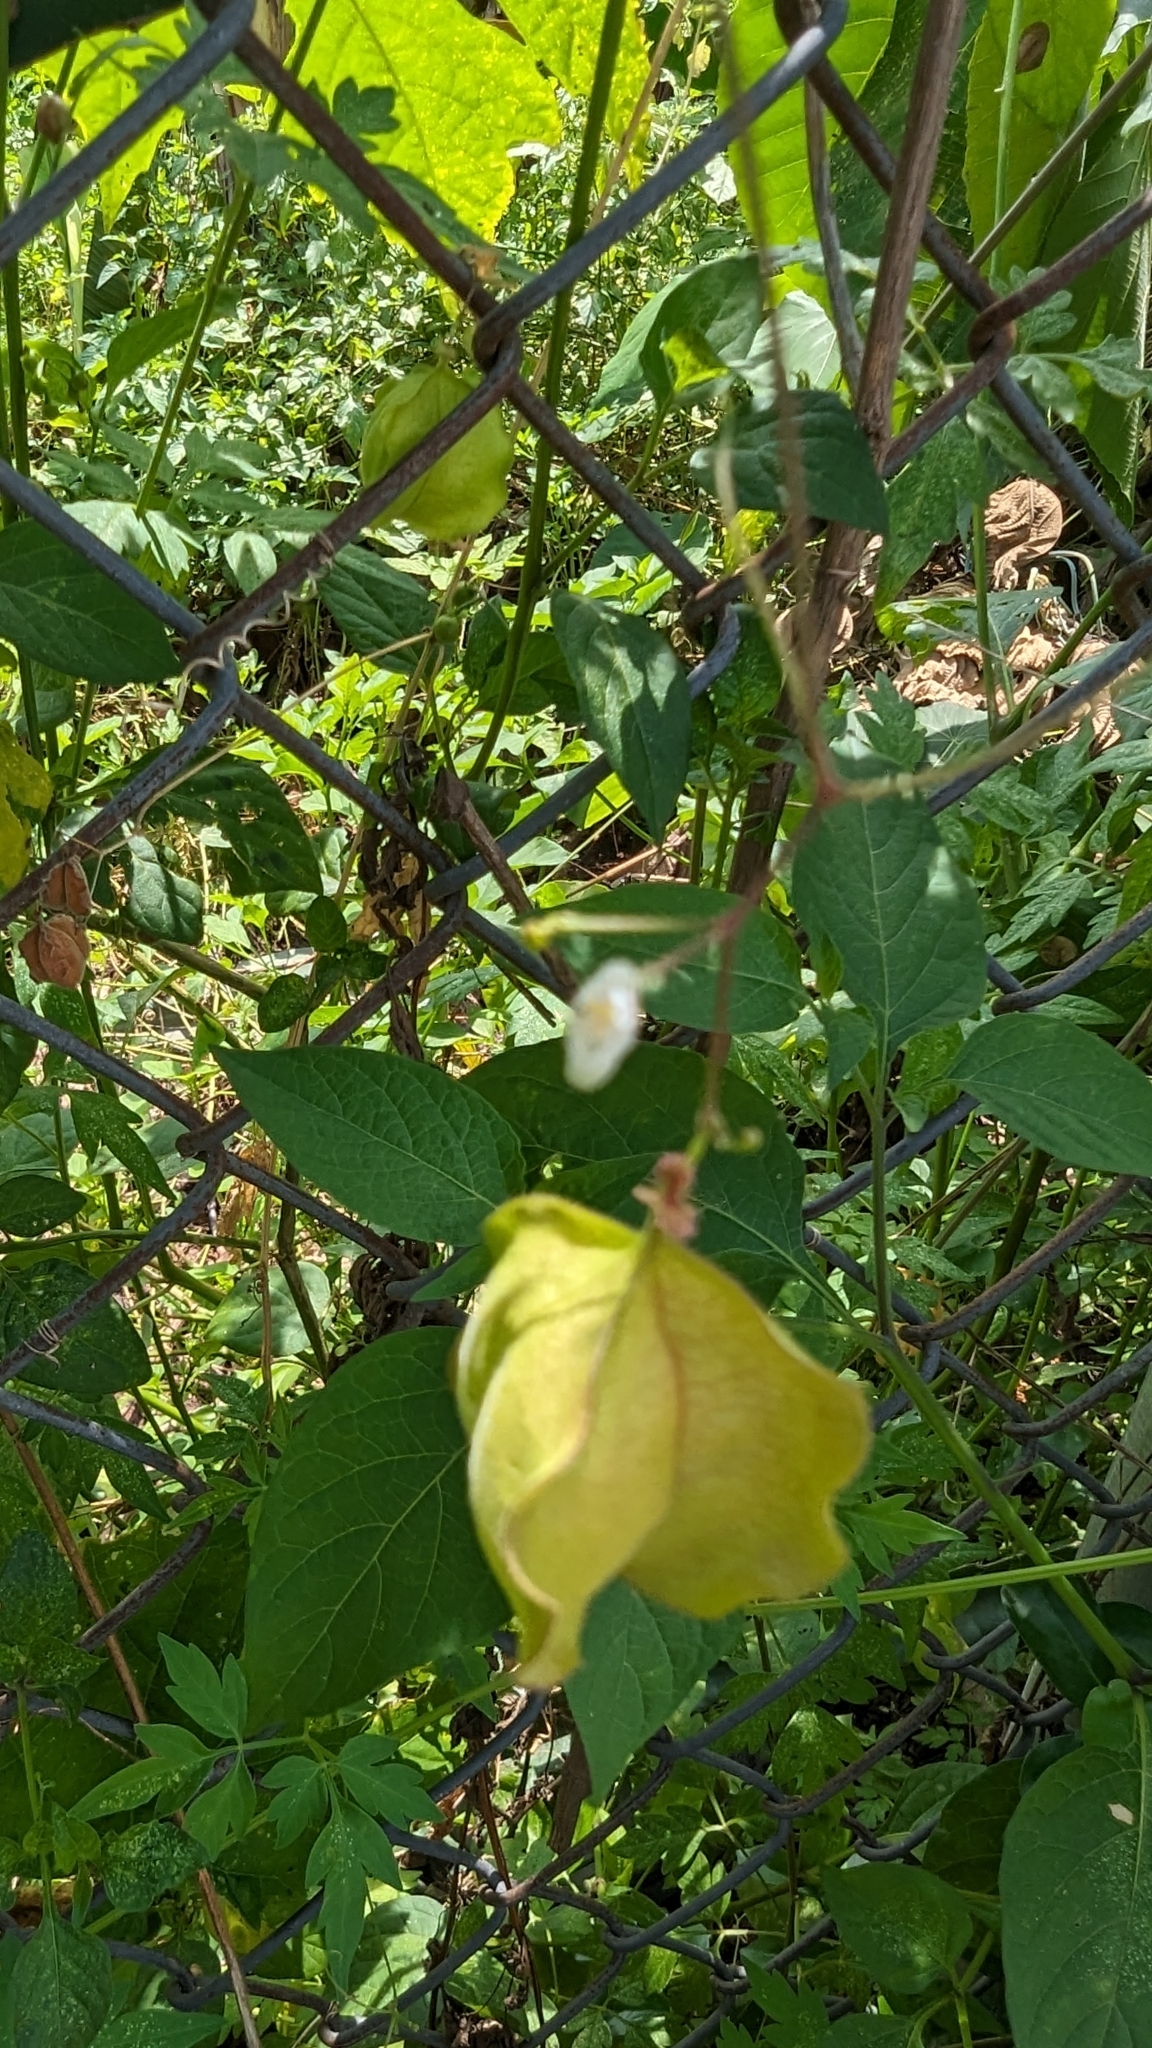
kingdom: Plantae
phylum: Tracheophyta
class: Magnoliopsida
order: Sapindales
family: Sapindaceae
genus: Cardiospermum
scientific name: Cardiospermum halicacabum
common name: Balloon vine
